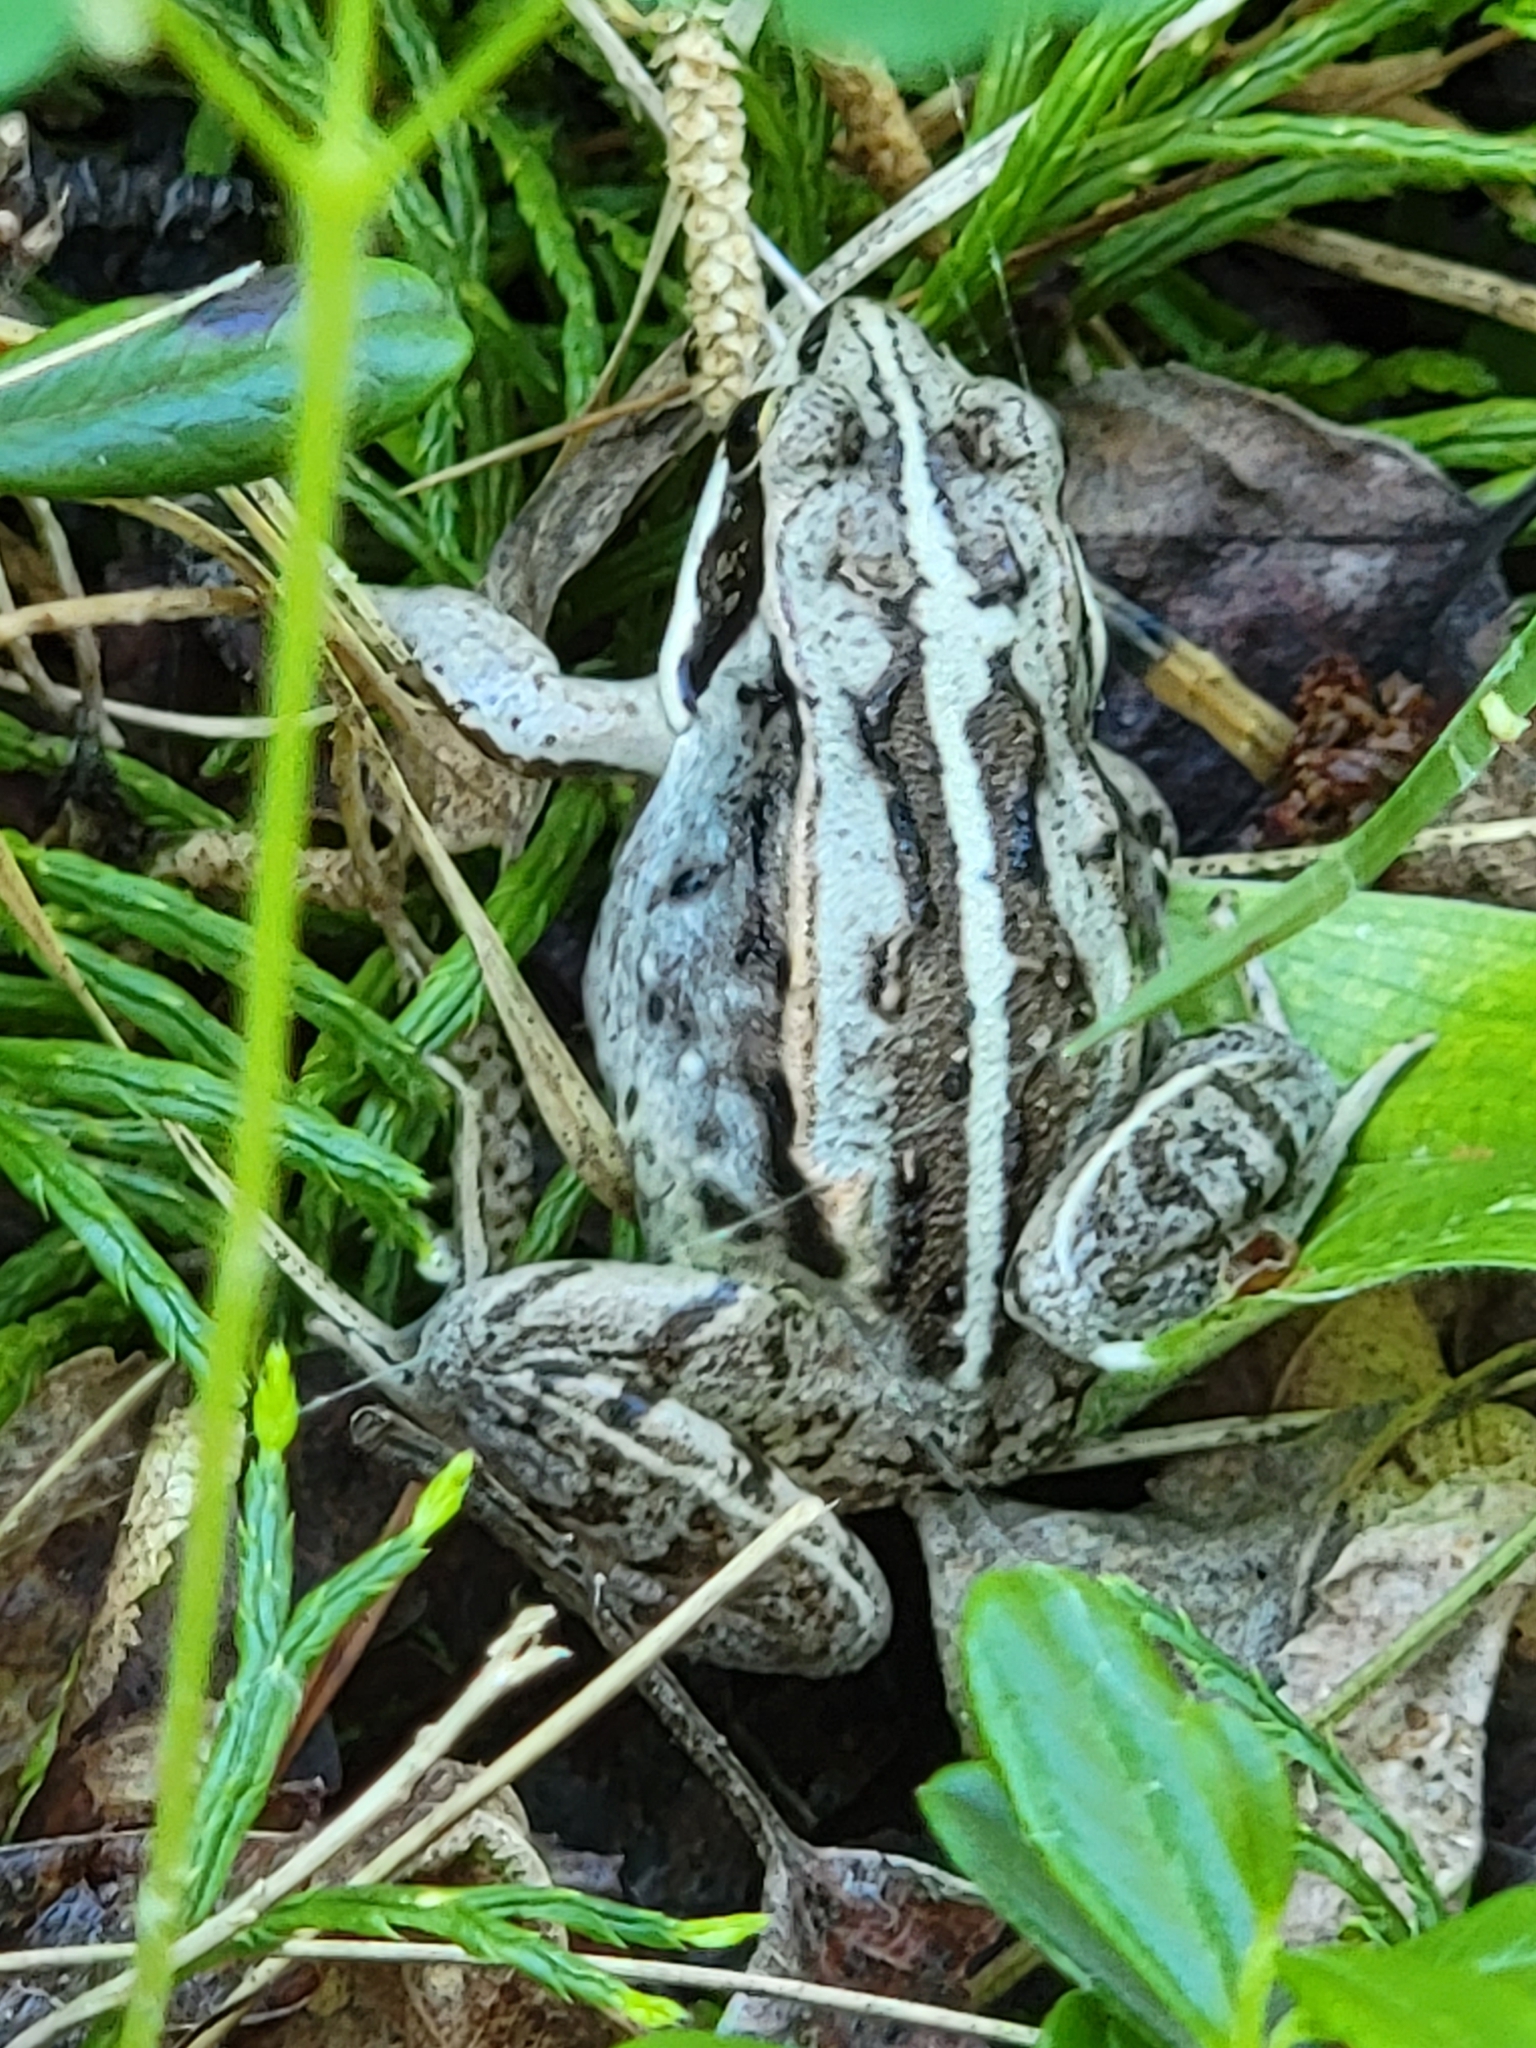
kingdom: Animalia
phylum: Chordata
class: Amphibia
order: Anura
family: Ranidae
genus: Lithobates
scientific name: Lithobates sylvaticus
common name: Wood frog
